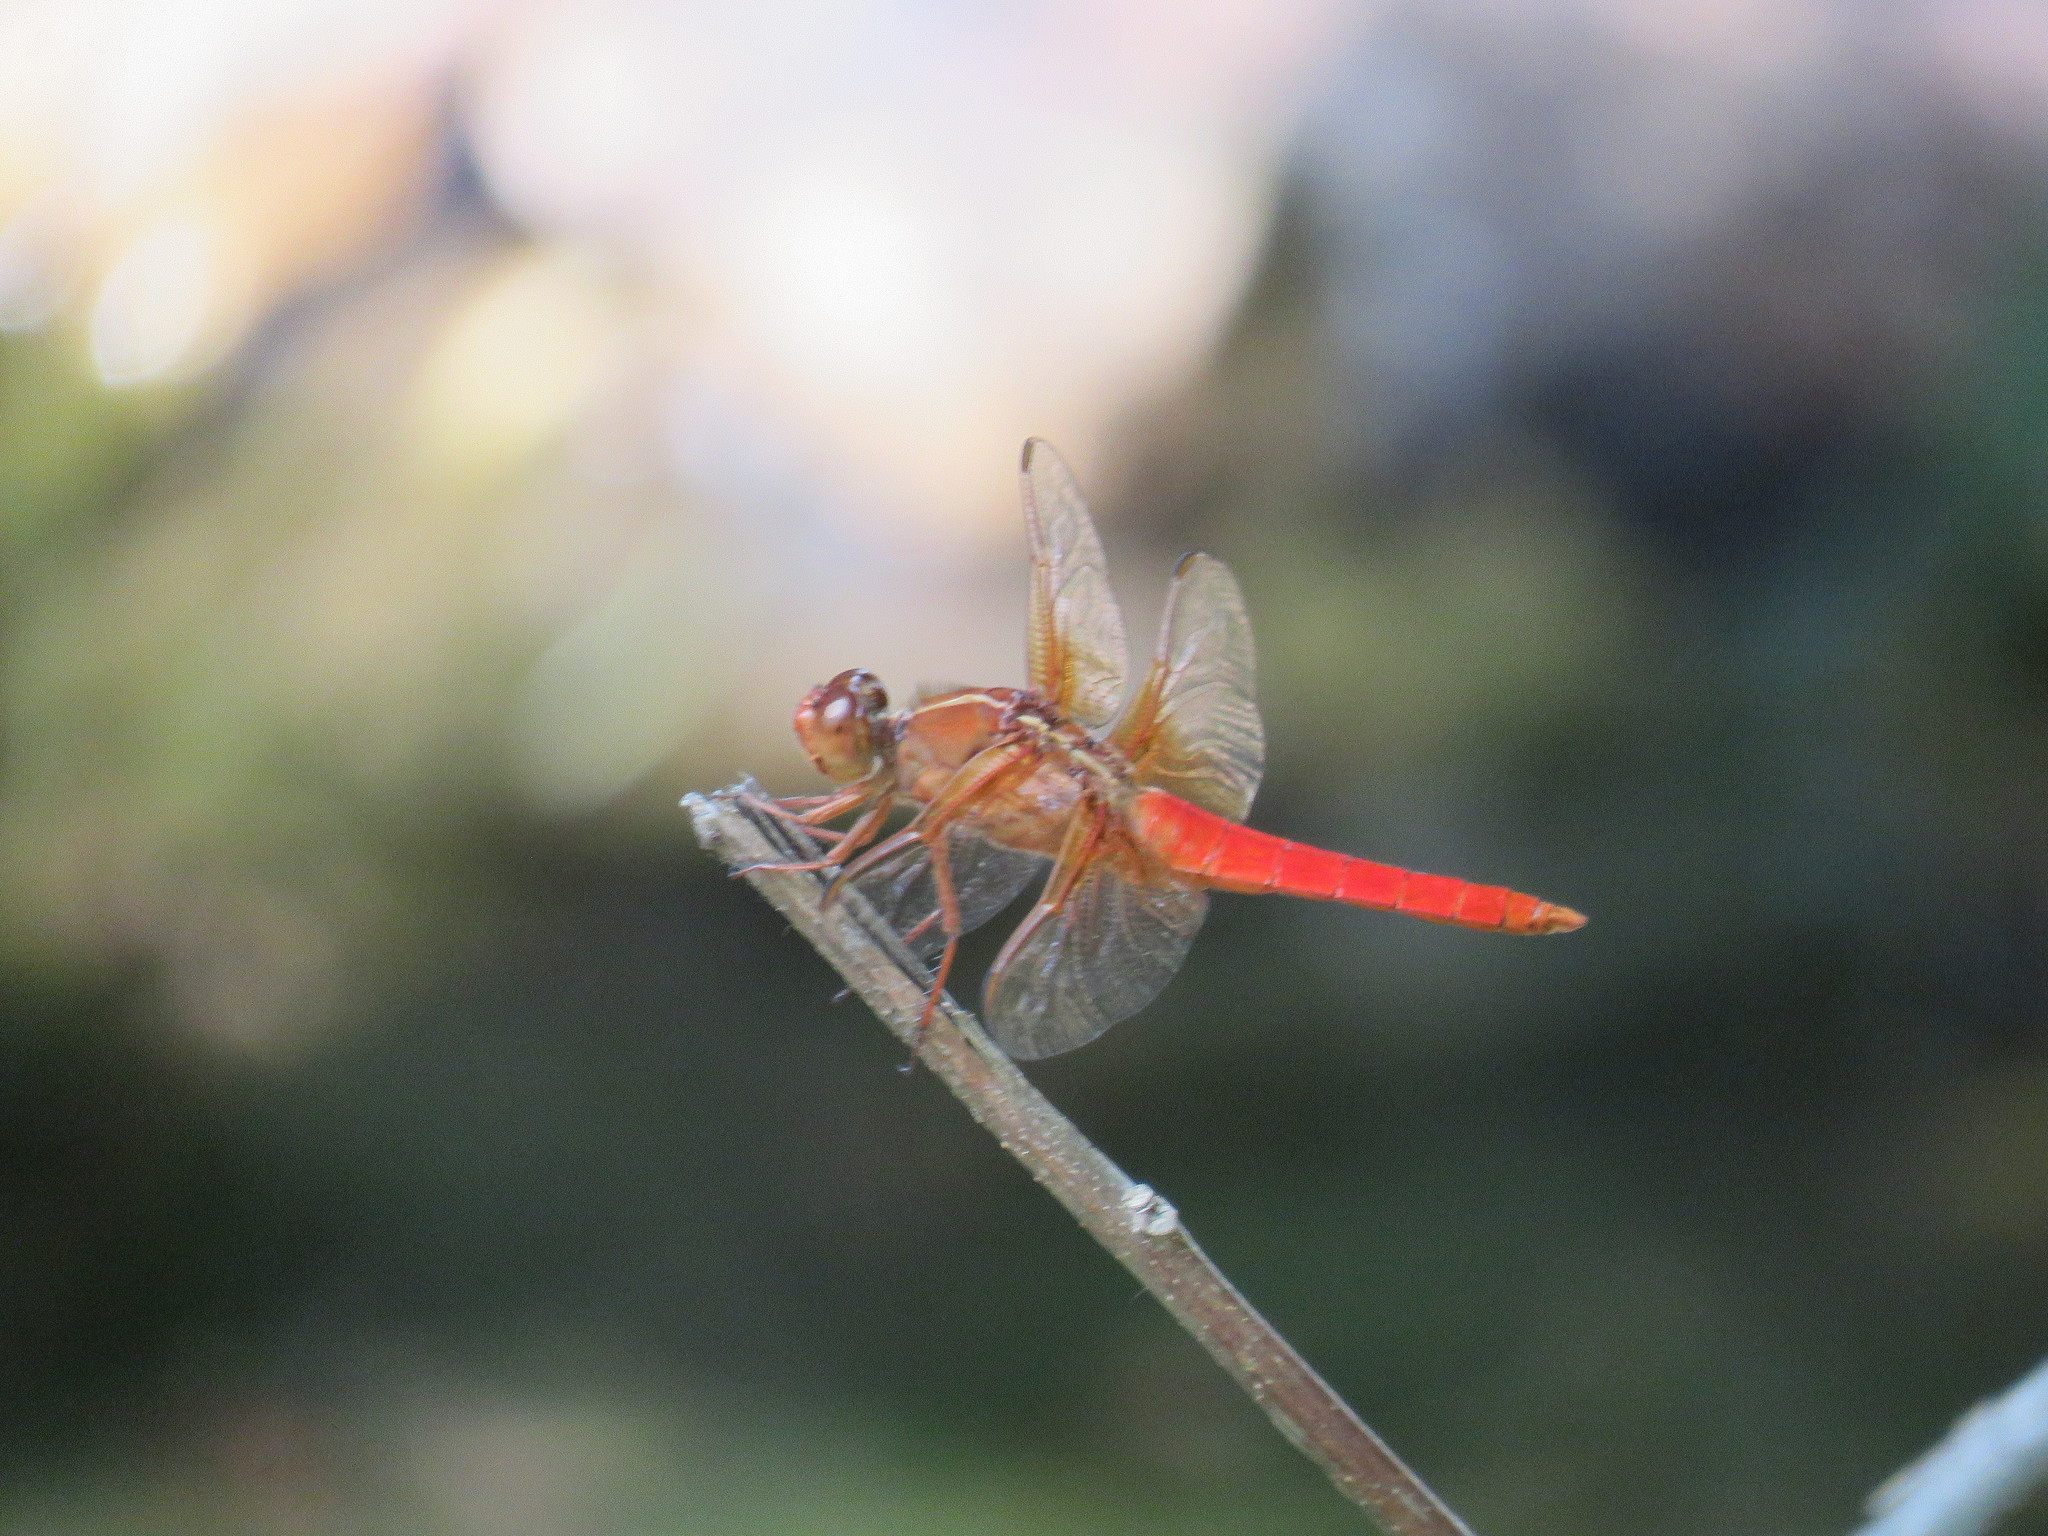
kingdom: Animalia
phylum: Arthropoda
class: Insecta
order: Odonata
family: Libellulidae
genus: Libellula
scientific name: Libellula croceipennis
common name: Neon skimmer
